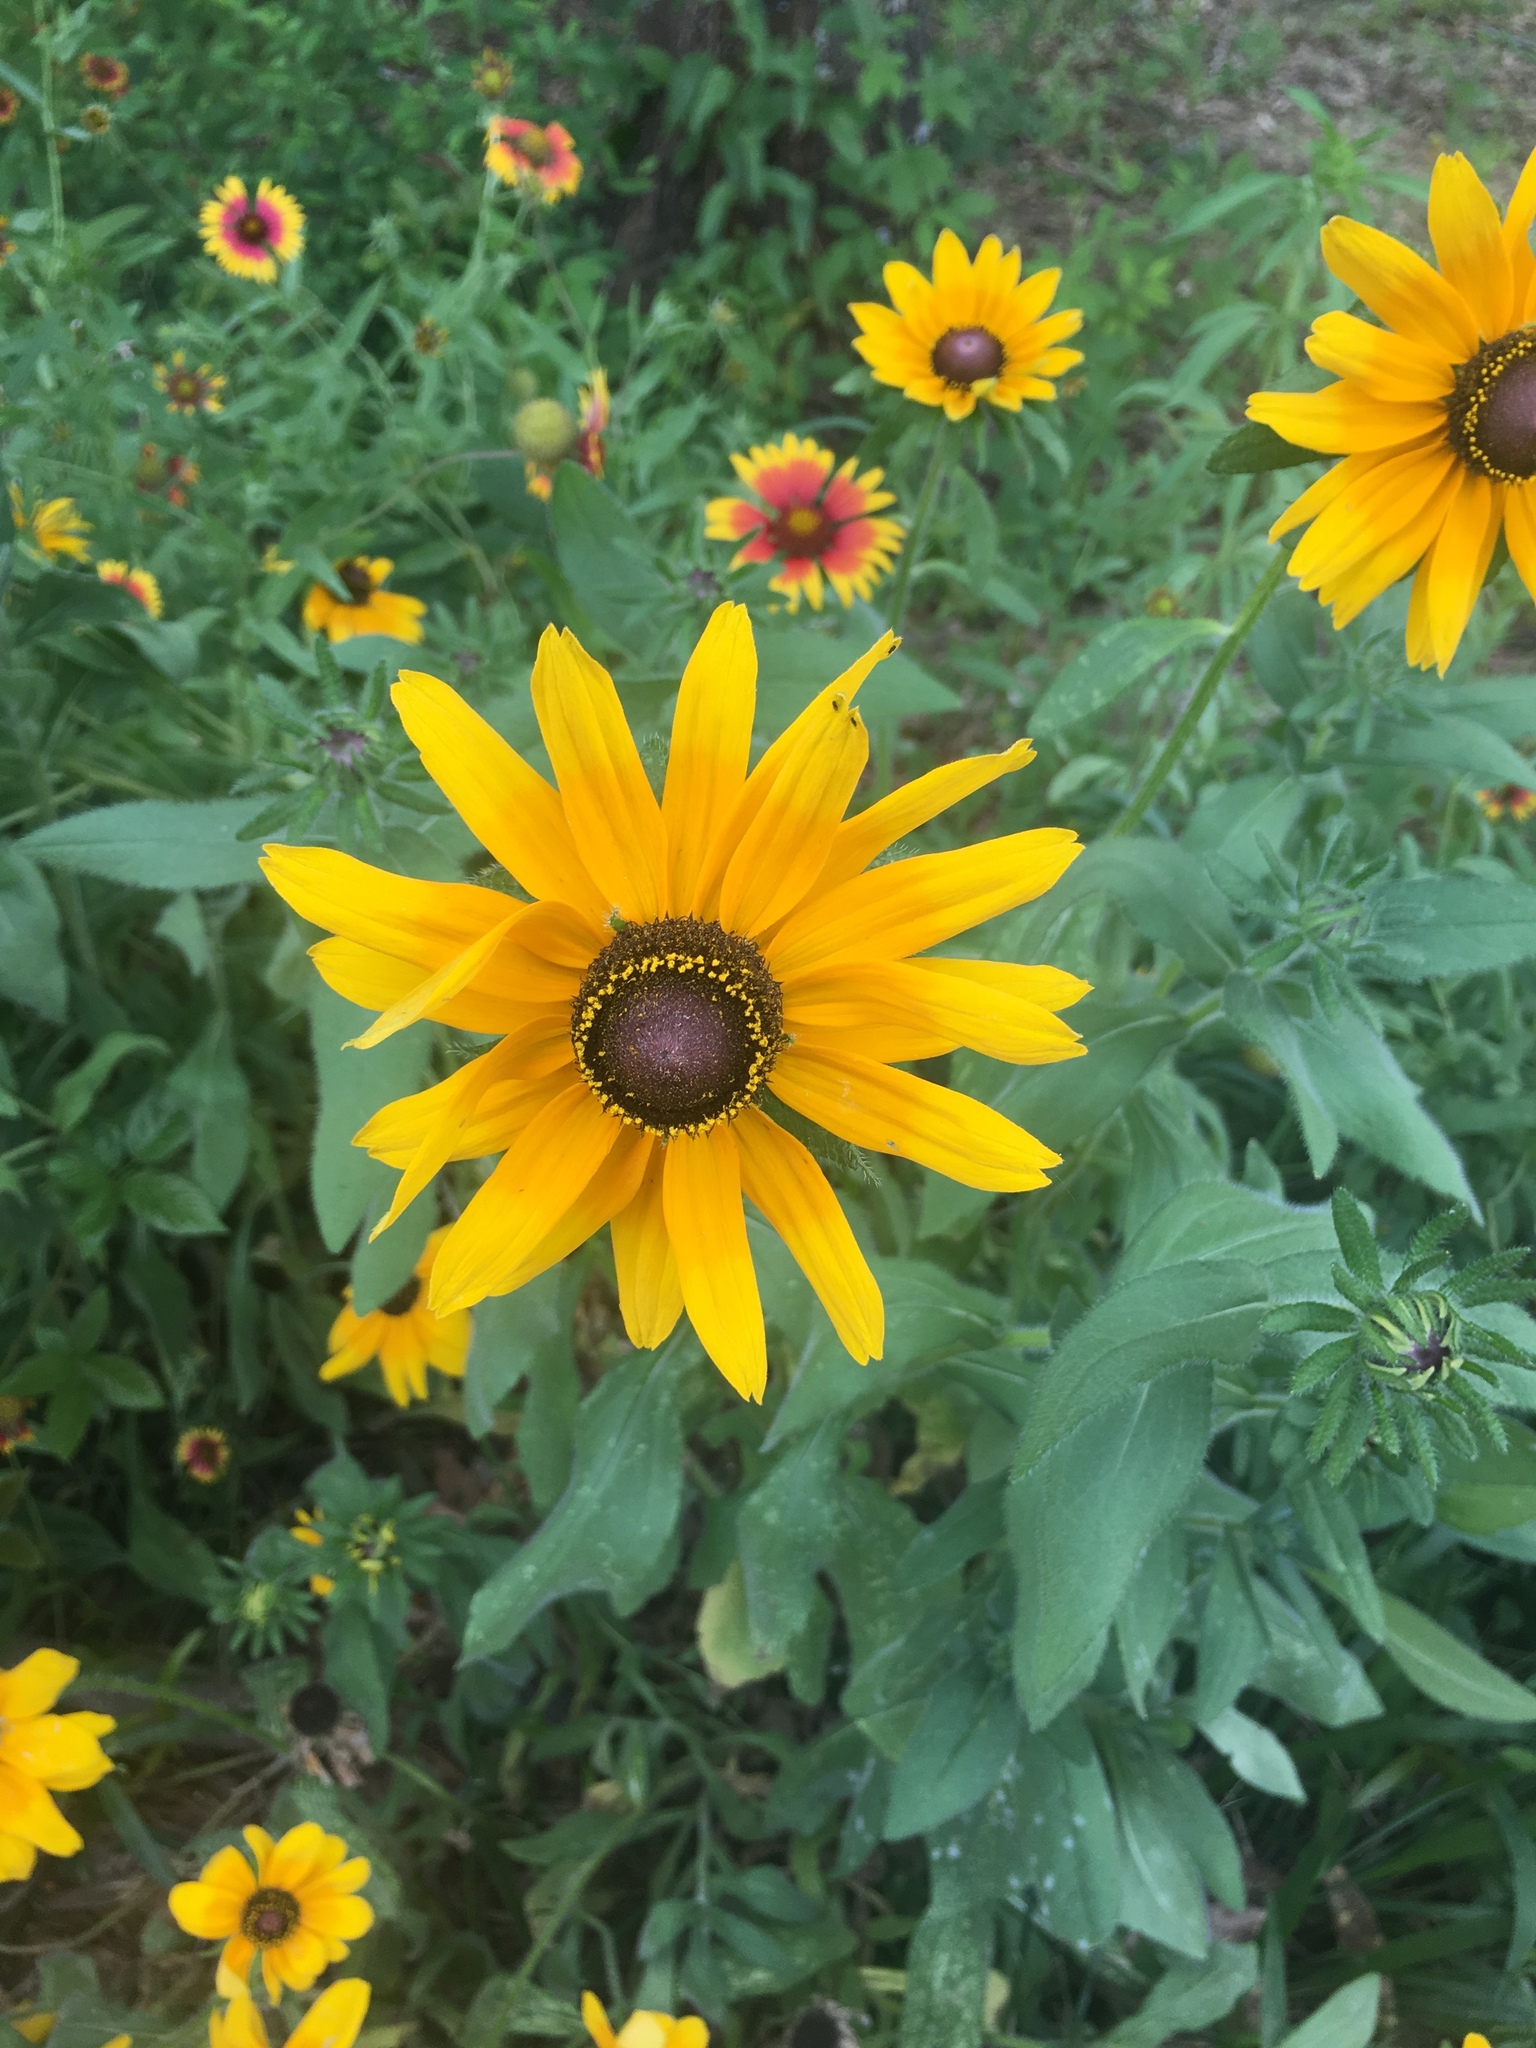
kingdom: Plantae
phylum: Tracheophyta
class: Magnoliopsida
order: Asterales
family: Asteraceae
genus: Rudbeckia
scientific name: Rudbeckia hirta
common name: Black-eyed-susan
